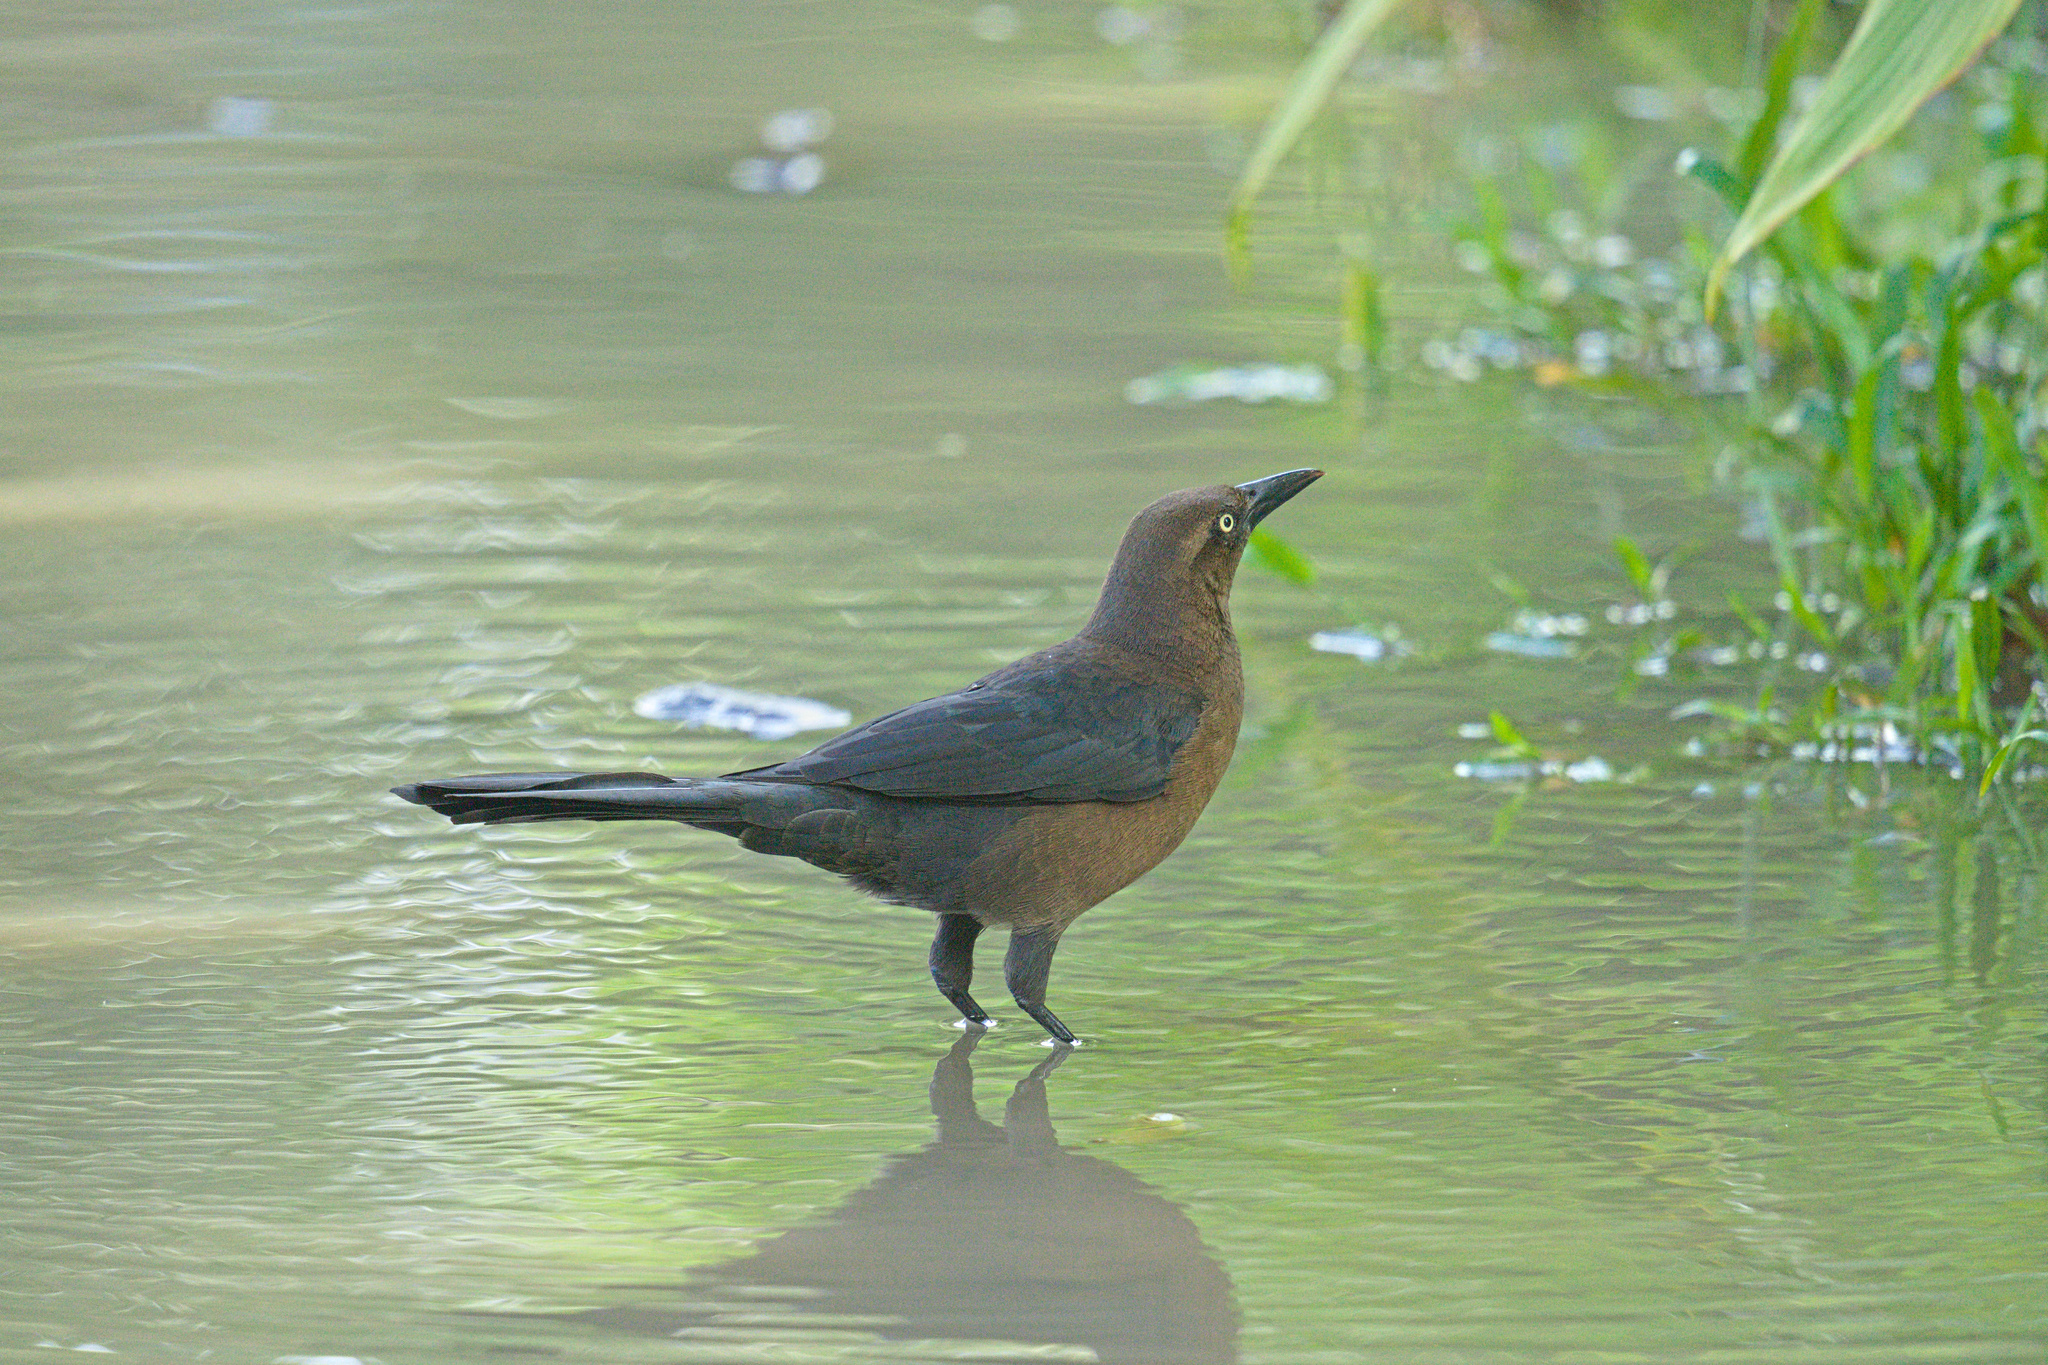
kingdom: Animalia
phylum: Chordata
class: Aves
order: Passeriformes
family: Icteridae
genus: Quiscalus
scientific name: Quiscalus mexicanus
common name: Great-tailed grackle
